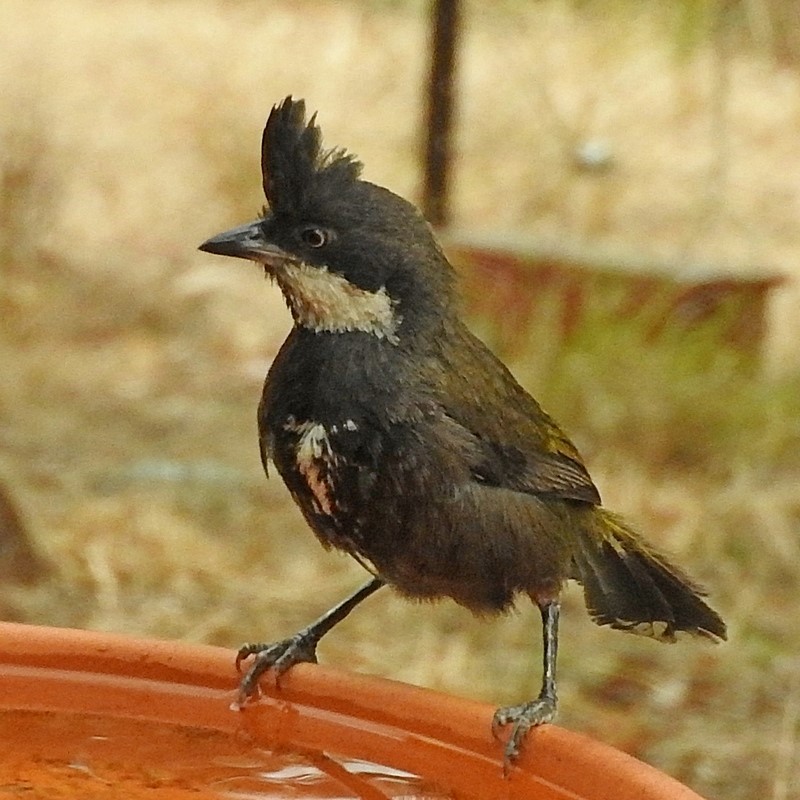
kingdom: Animalia
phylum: Chordata
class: Aves
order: Passeriformes
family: Psophodidae
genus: Psophodes
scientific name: Psophodes olivaceus
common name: Eastern whipbird
